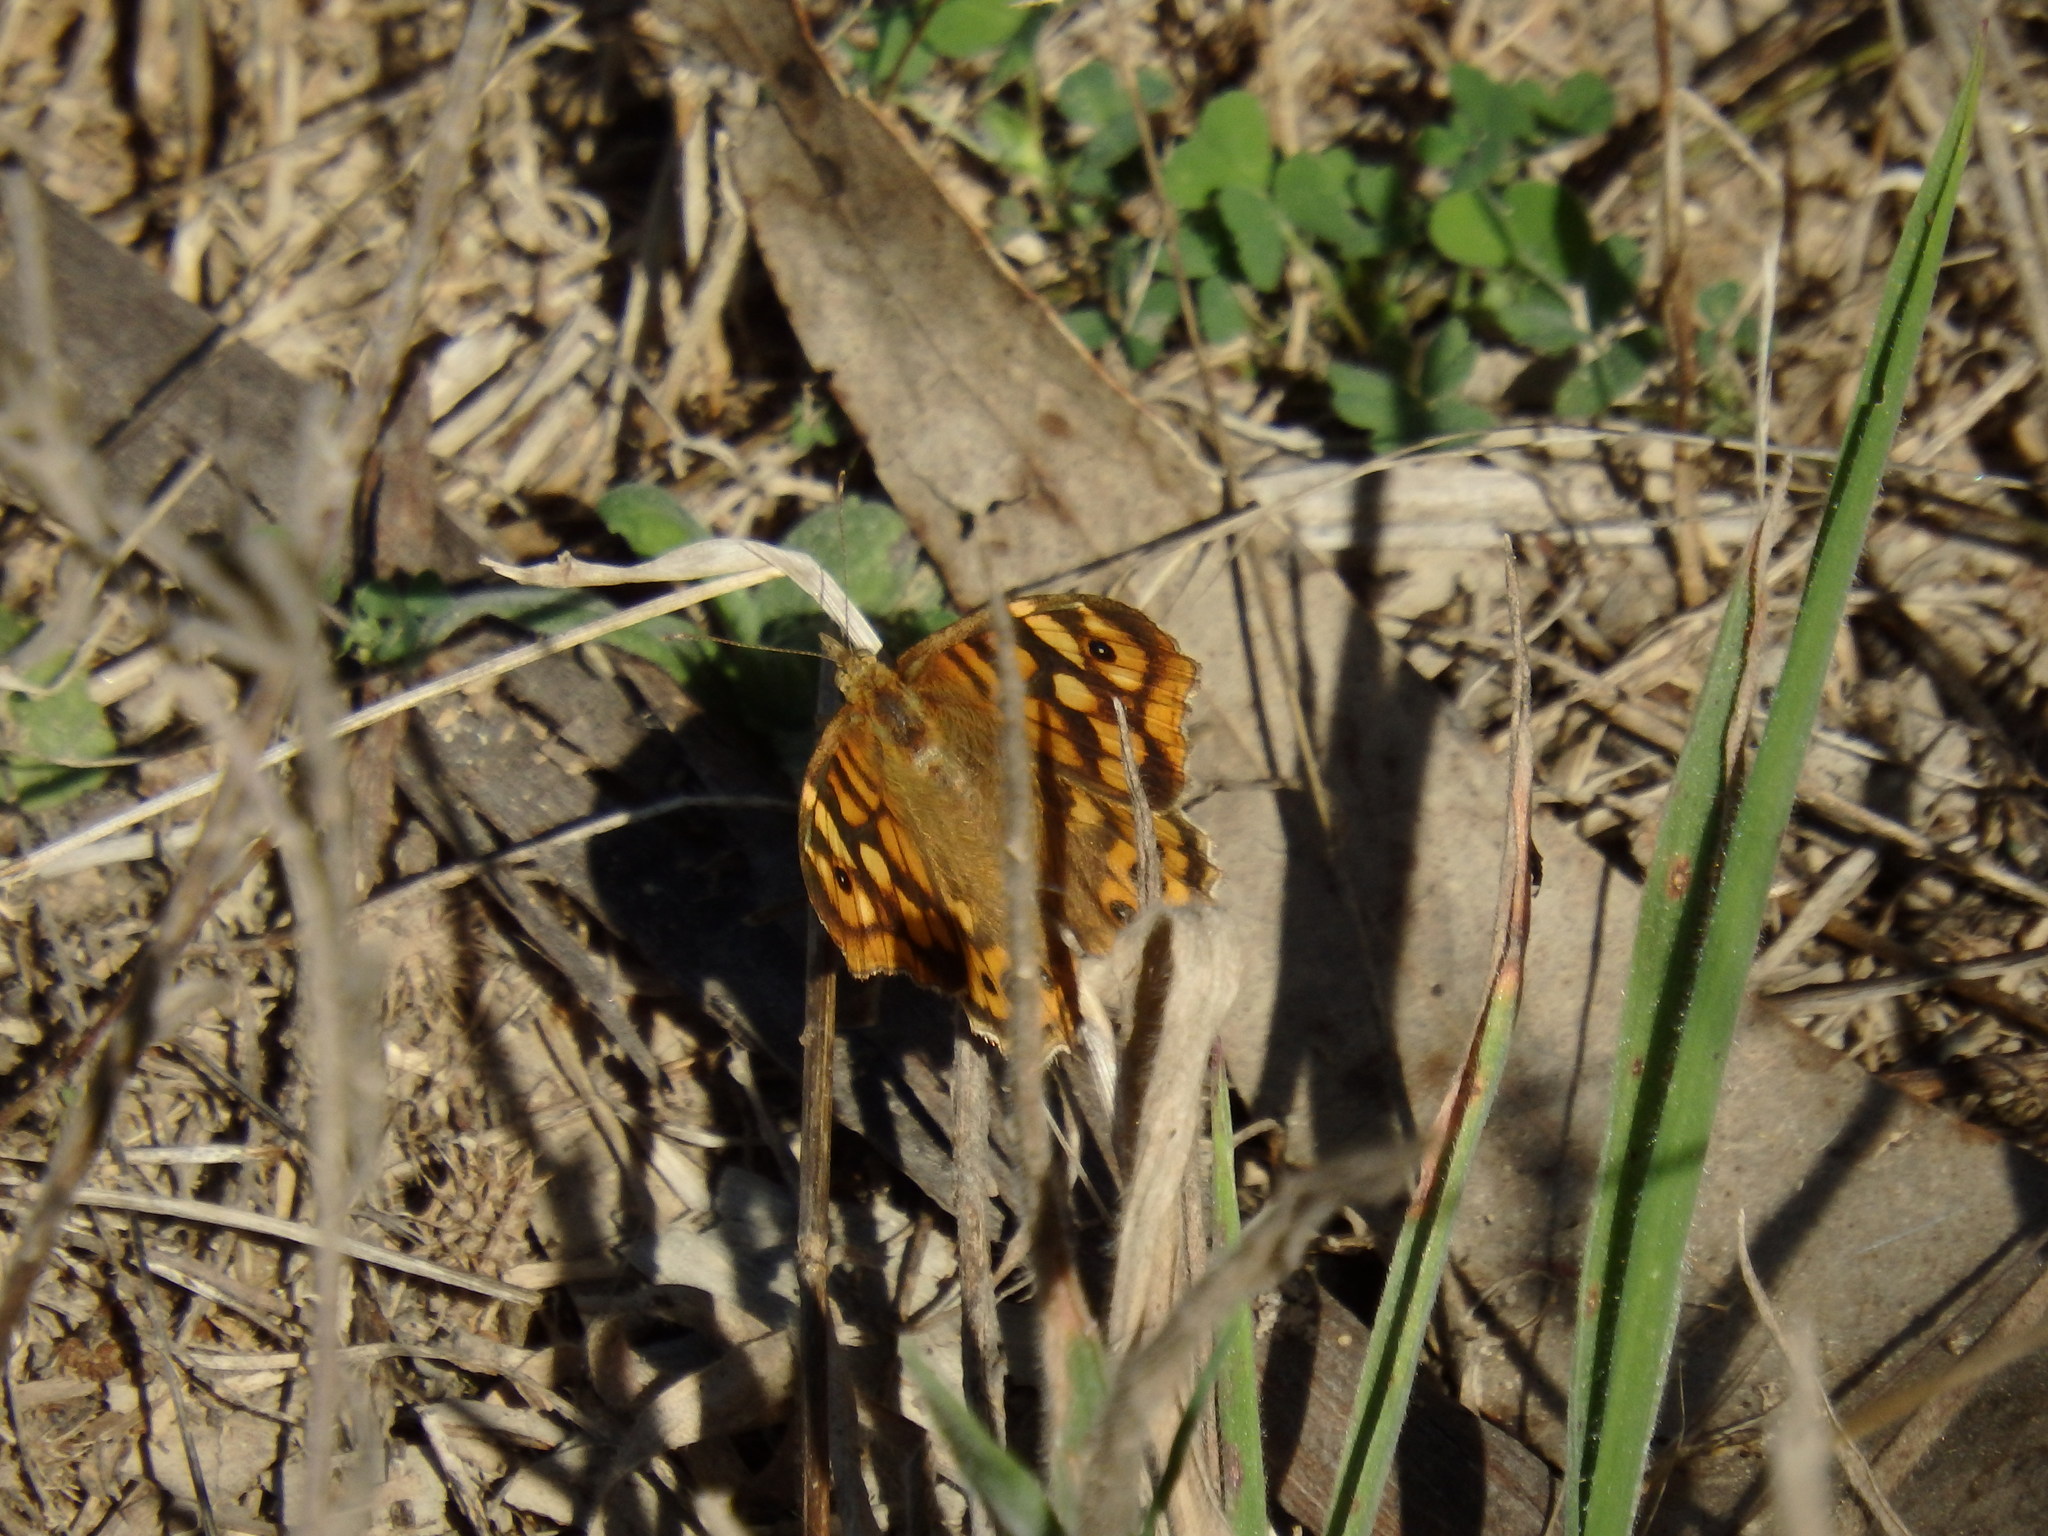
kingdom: Animalia
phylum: Arthropoda
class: Insecta
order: Lepidoptera
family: Nymphalidae
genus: Pararge
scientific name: Pararge aegeria
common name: Speckled wood
